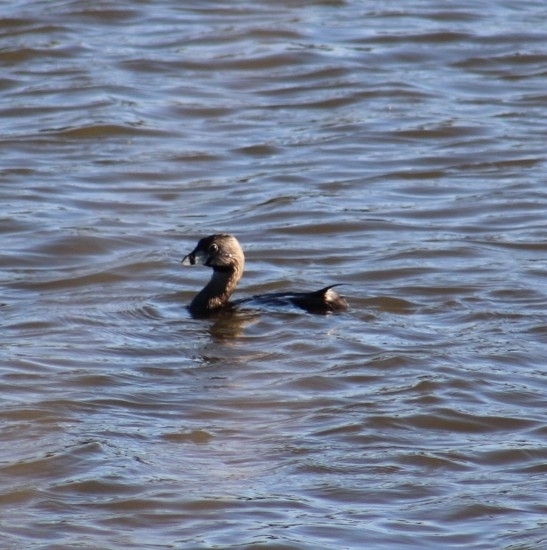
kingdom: Animalia
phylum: Chordata
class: Aves
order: Podicipediformes
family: Podicipedidae
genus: Podilymbus
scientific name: Podilymbus podiceps
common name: Pied-billed grebe
